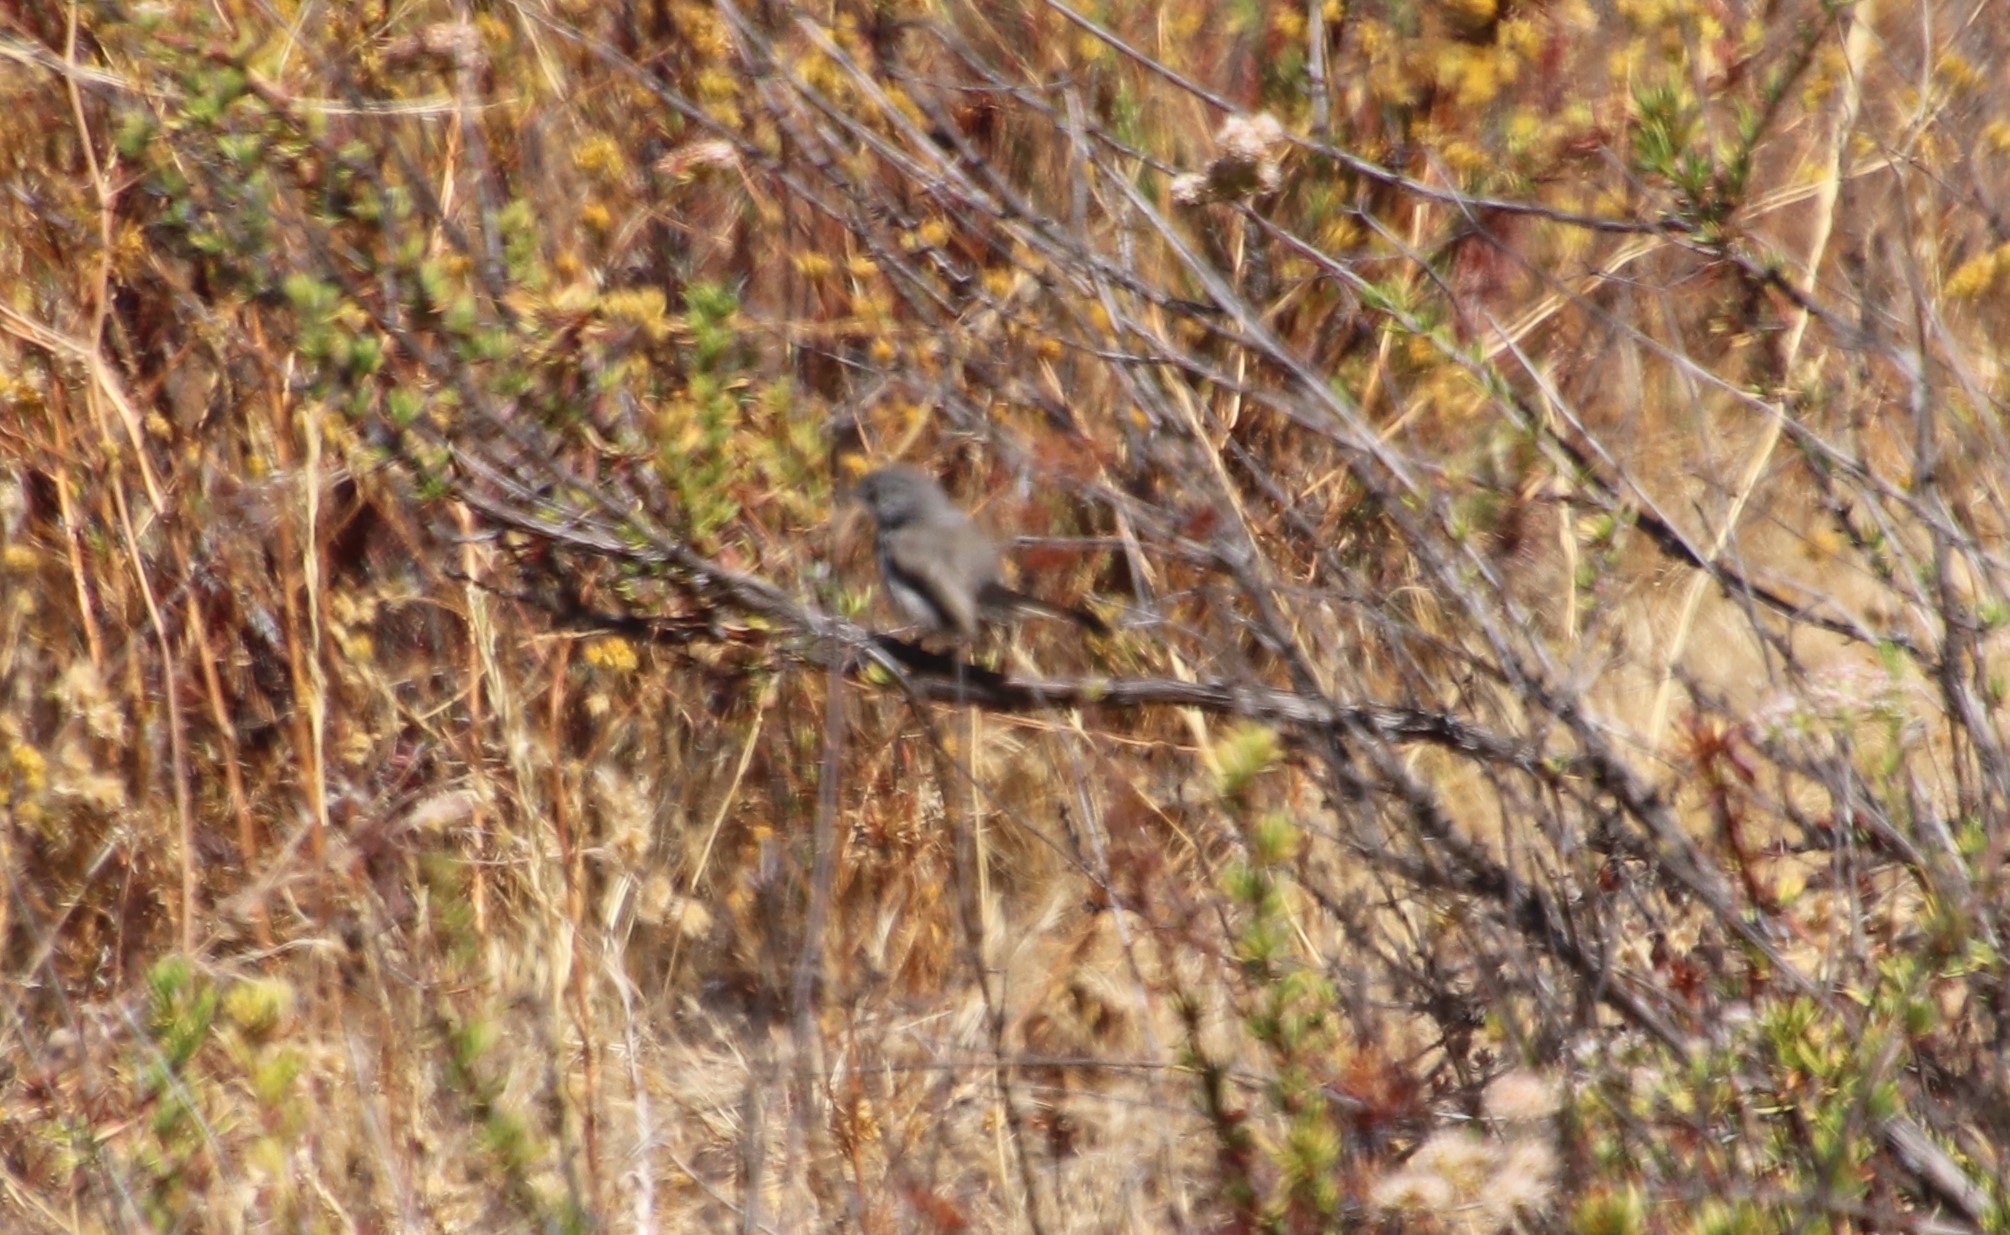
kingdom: Animalia
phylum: Chordata
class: Aves
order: Passeriformes
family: Polioptilidae
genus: Polioptila
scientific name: Polioptila californica
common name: California gnatcatcher
